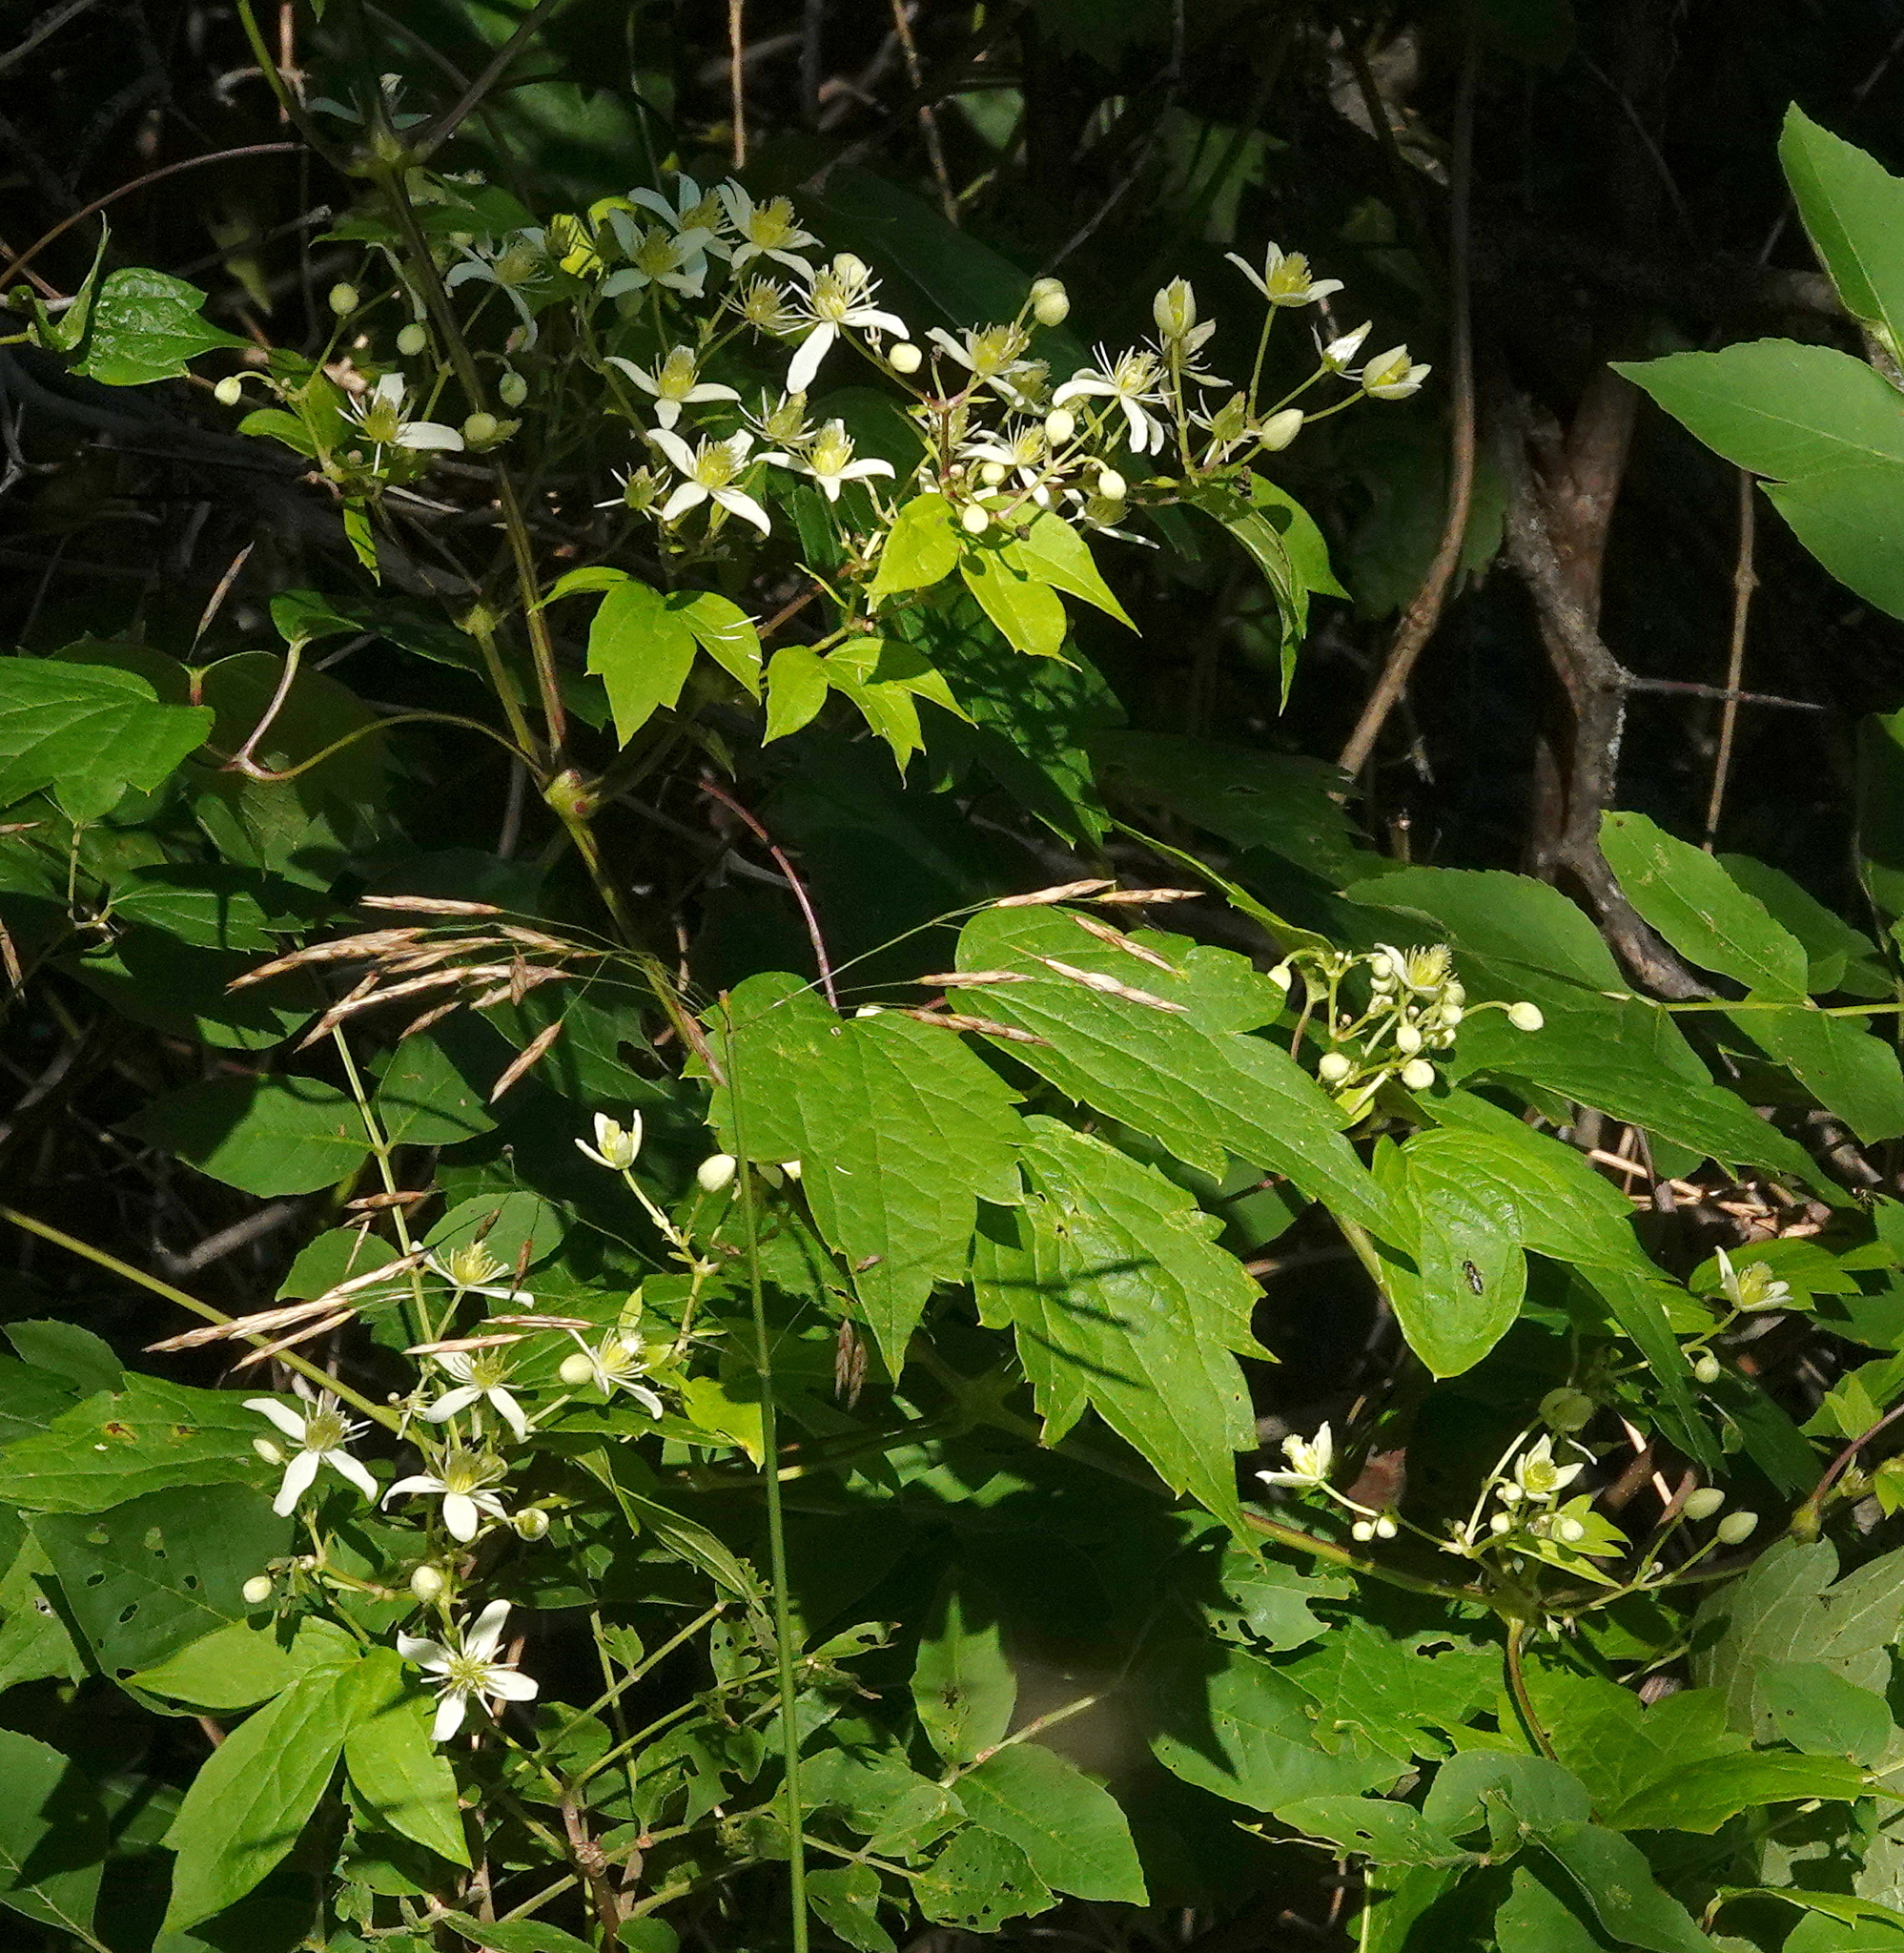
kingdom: Plantae
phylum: Tracheophyta
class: Magnoliopsida
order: Ranunculales
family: Ranunculaceae
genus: Clematis
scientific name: Clematis virginiana
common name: Virgin's-bower
